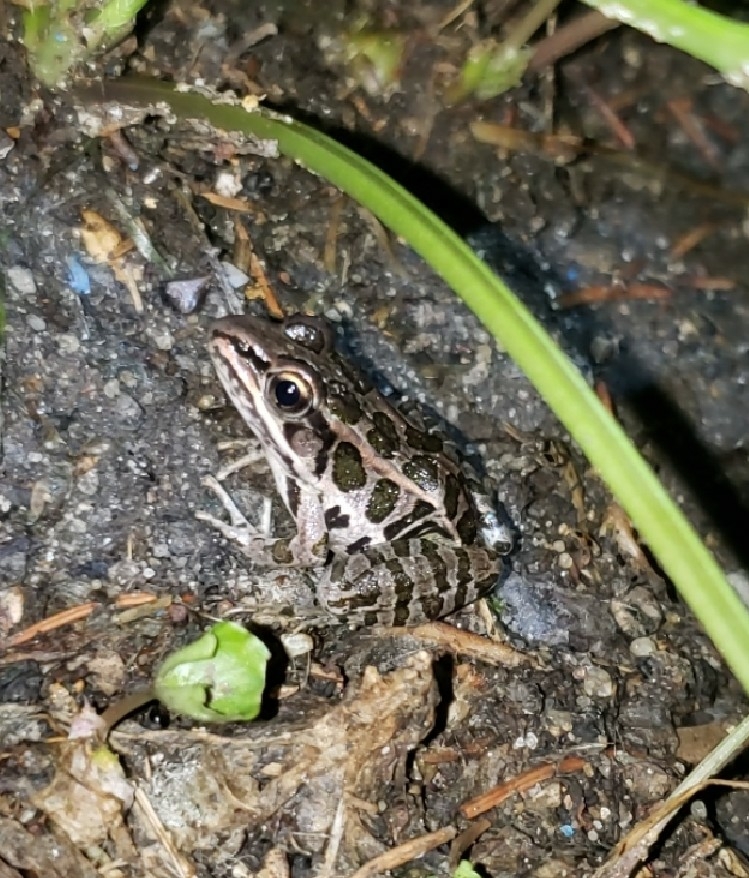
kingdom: Animalia
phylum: Chordata
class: Amphibia
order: Anura
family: Ranidae
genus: Lithobates
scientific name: Lithobates palustris
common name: Pickerel frog
